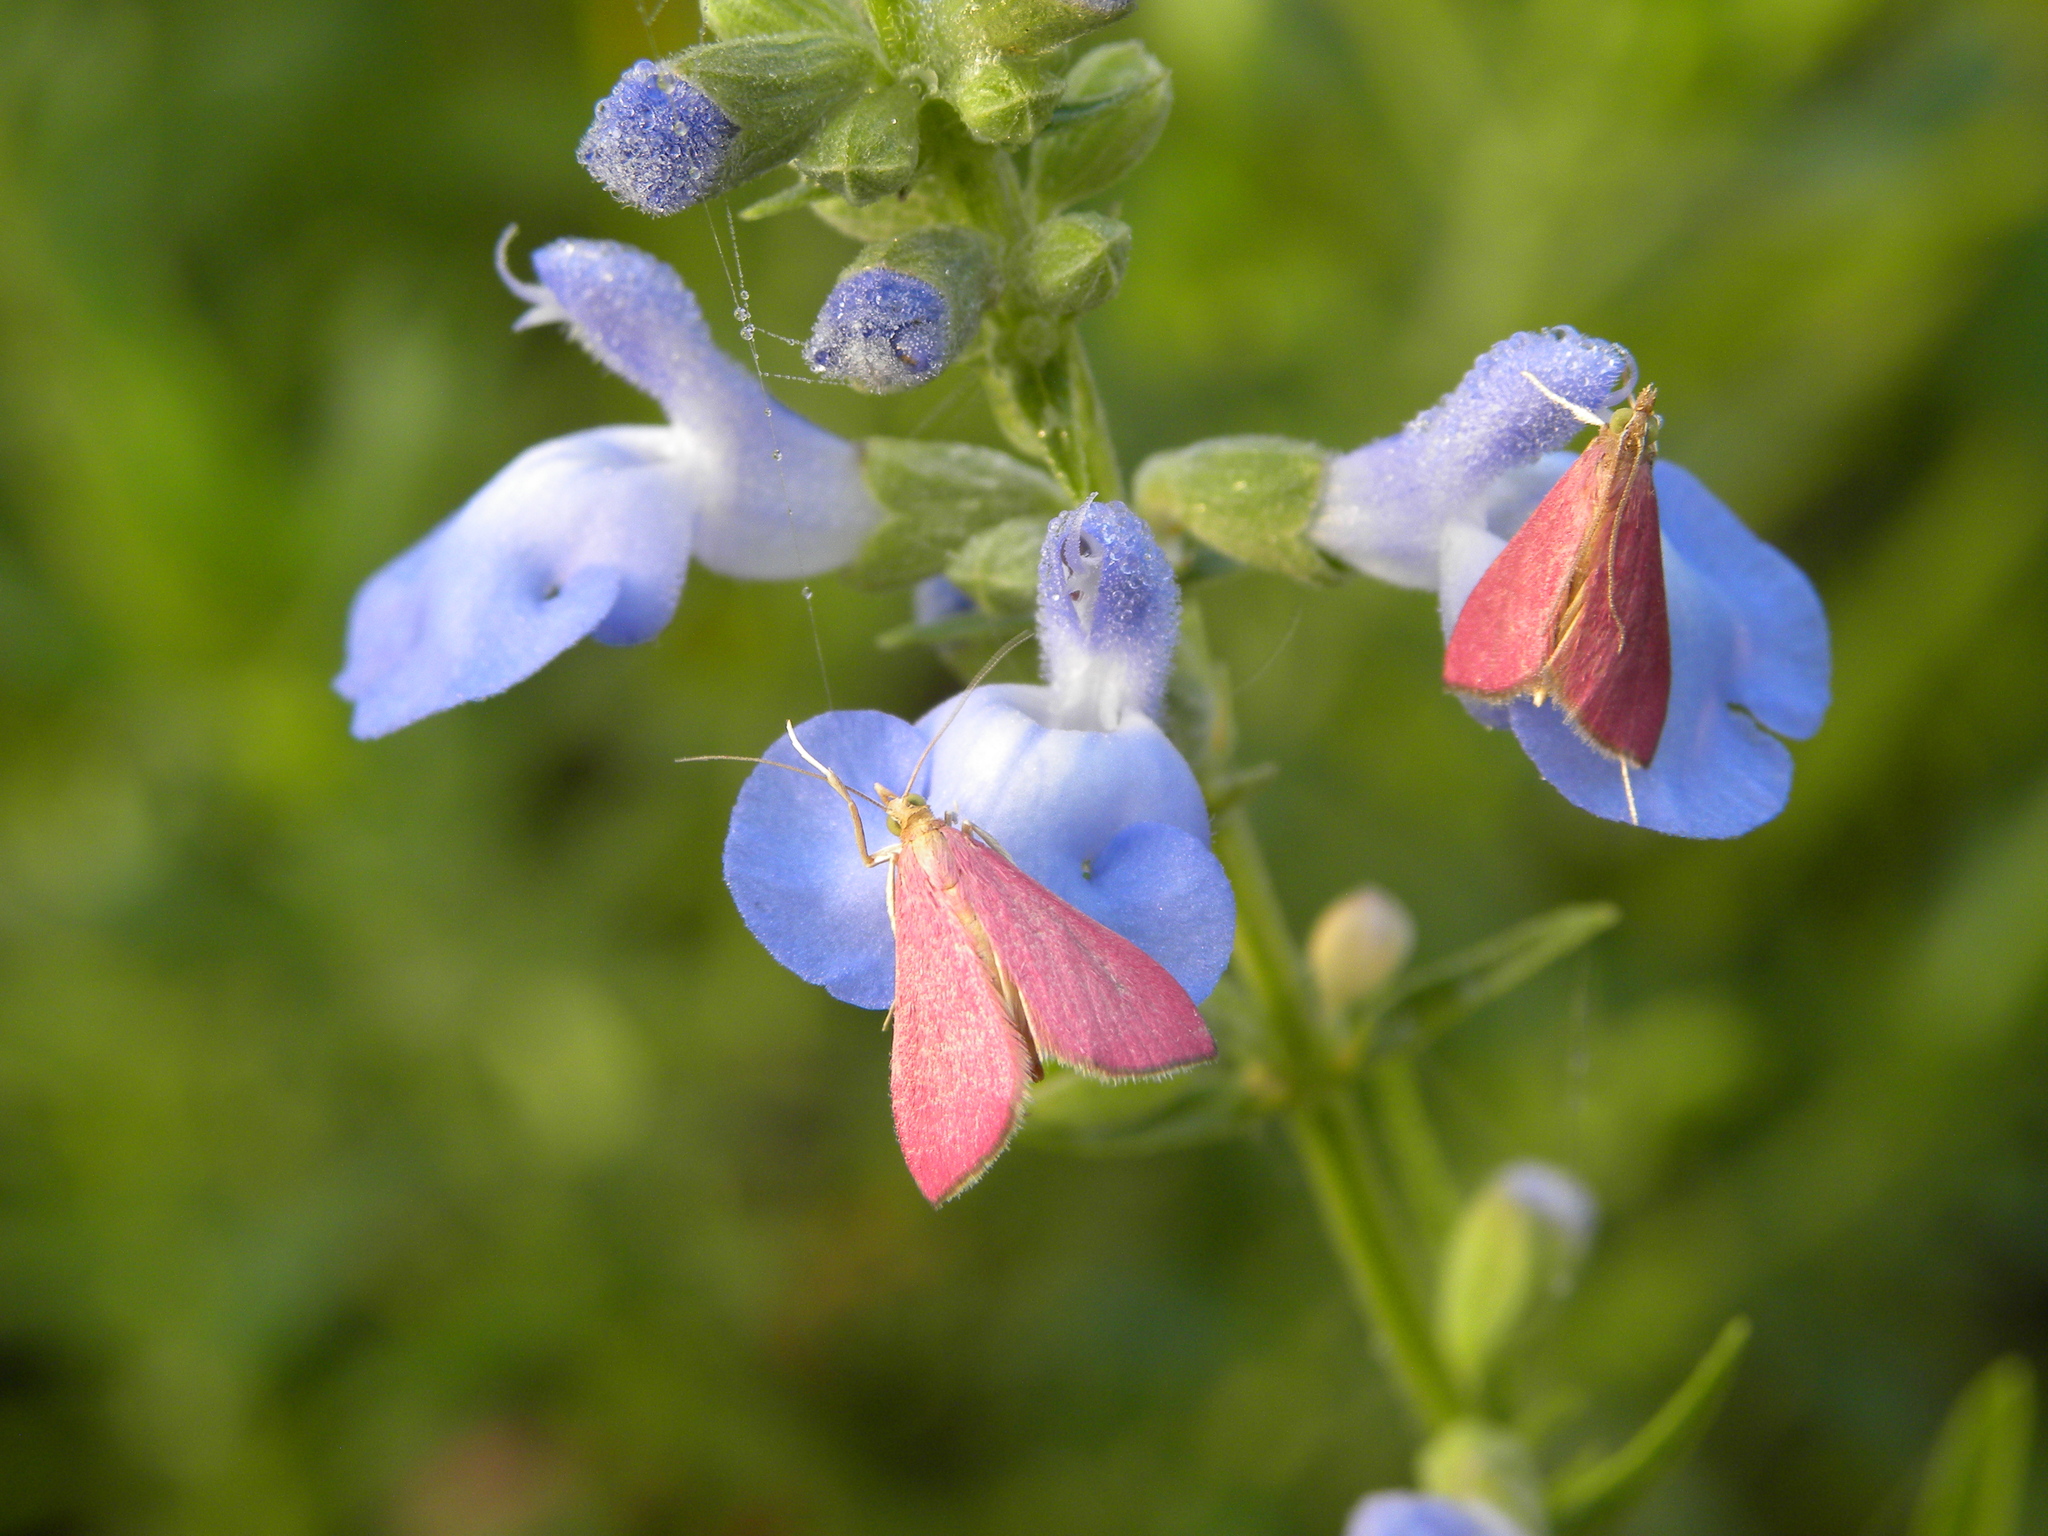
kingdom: Animalia
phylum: Arthropoda
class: Insecta
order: Lepidoptera
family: Crambidae
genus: Pyrausta
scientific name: Pyrausta inornatalis
